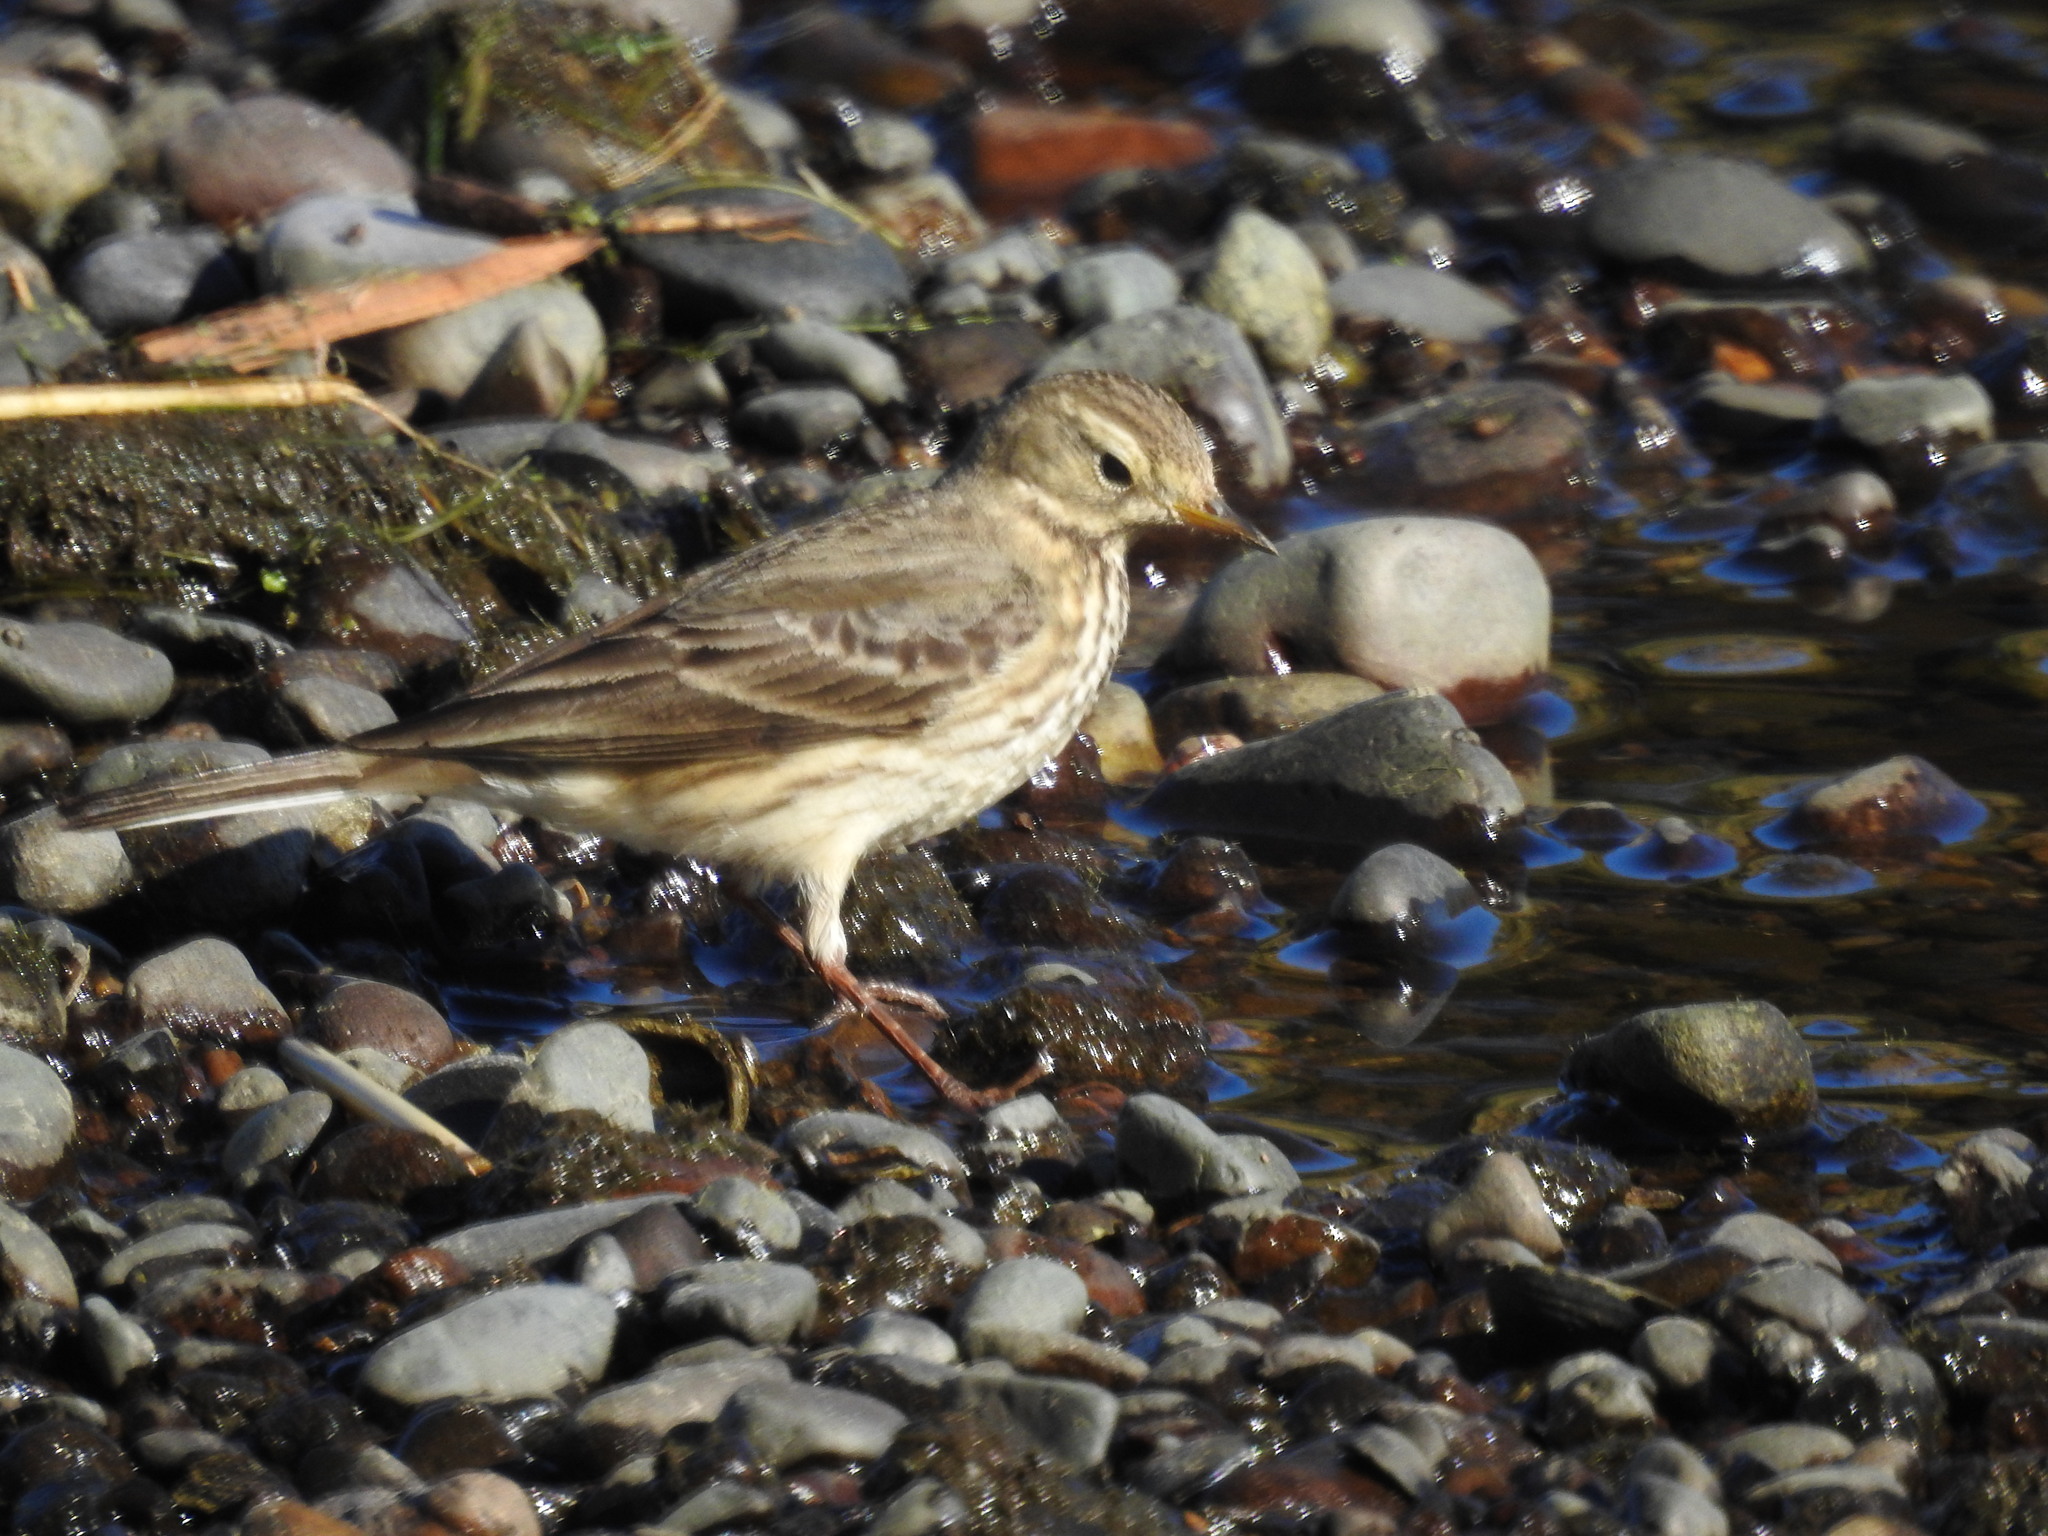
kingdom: Animalia
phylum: Chordata
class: Aves
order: Passeriformes
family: Motacillidae
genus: Anthus
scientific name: Anthus rubescens
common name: Buff-bellied pipit
